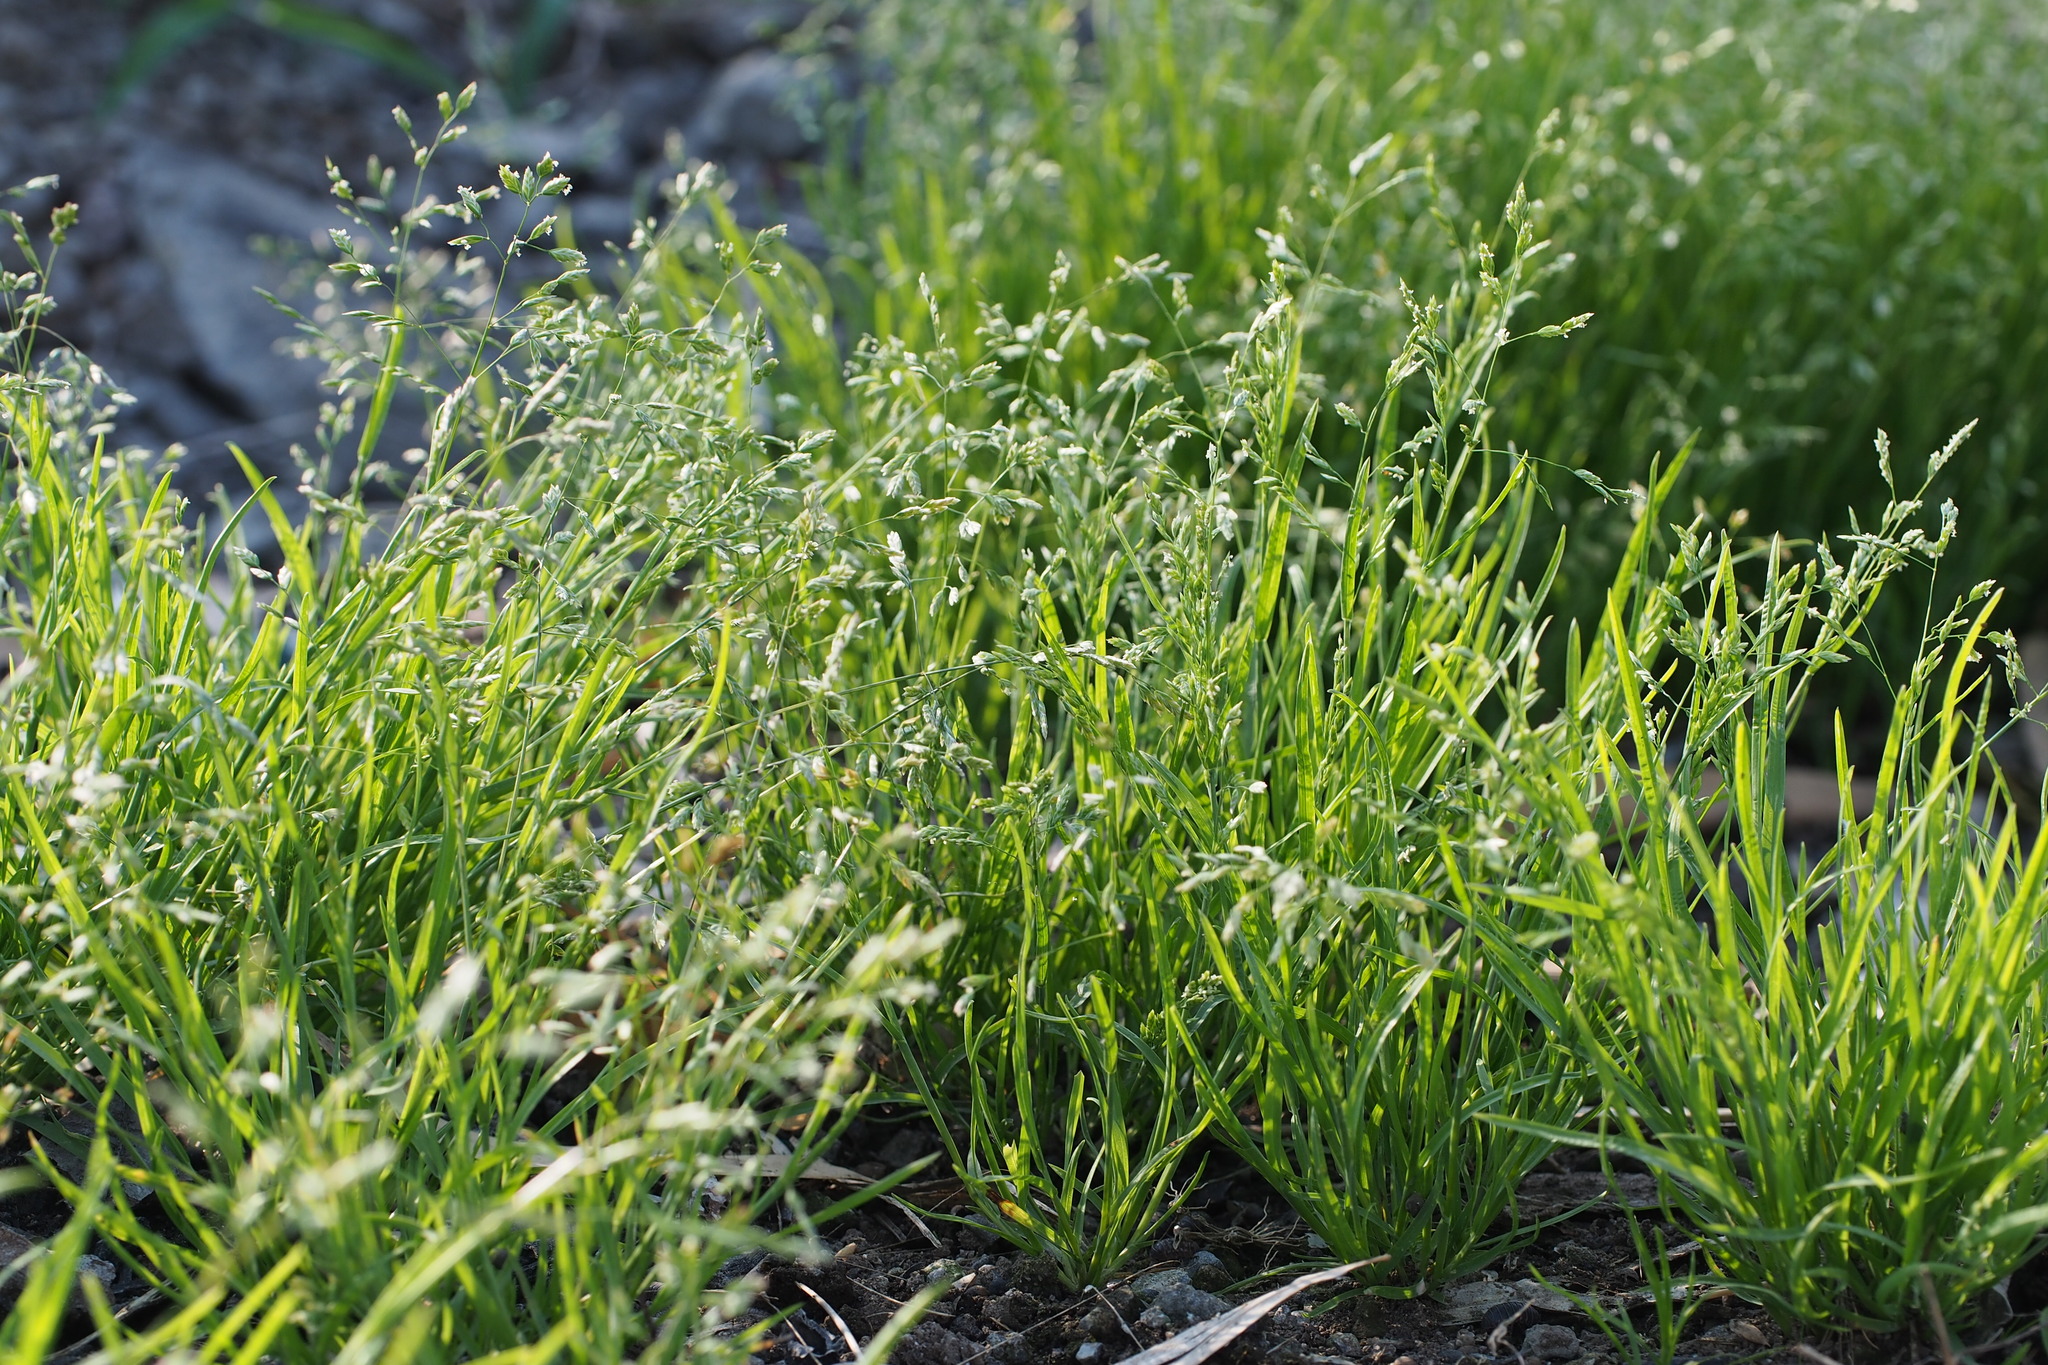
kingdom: Plantae
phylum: Tracheophyta
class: Liliopsida
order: Poales
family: Poaceae
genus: Poa
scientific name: Poa annua
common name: Annual bluegrass
